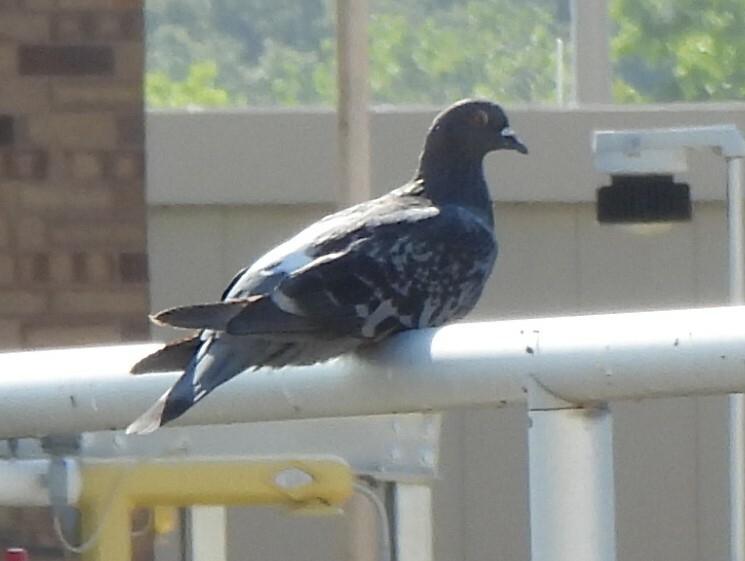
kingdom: Animalia
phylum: Chordata
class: Aves
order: Columbiformes
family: Columbidae
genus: Columba
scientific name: Columba livia
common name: Rock pigeon
